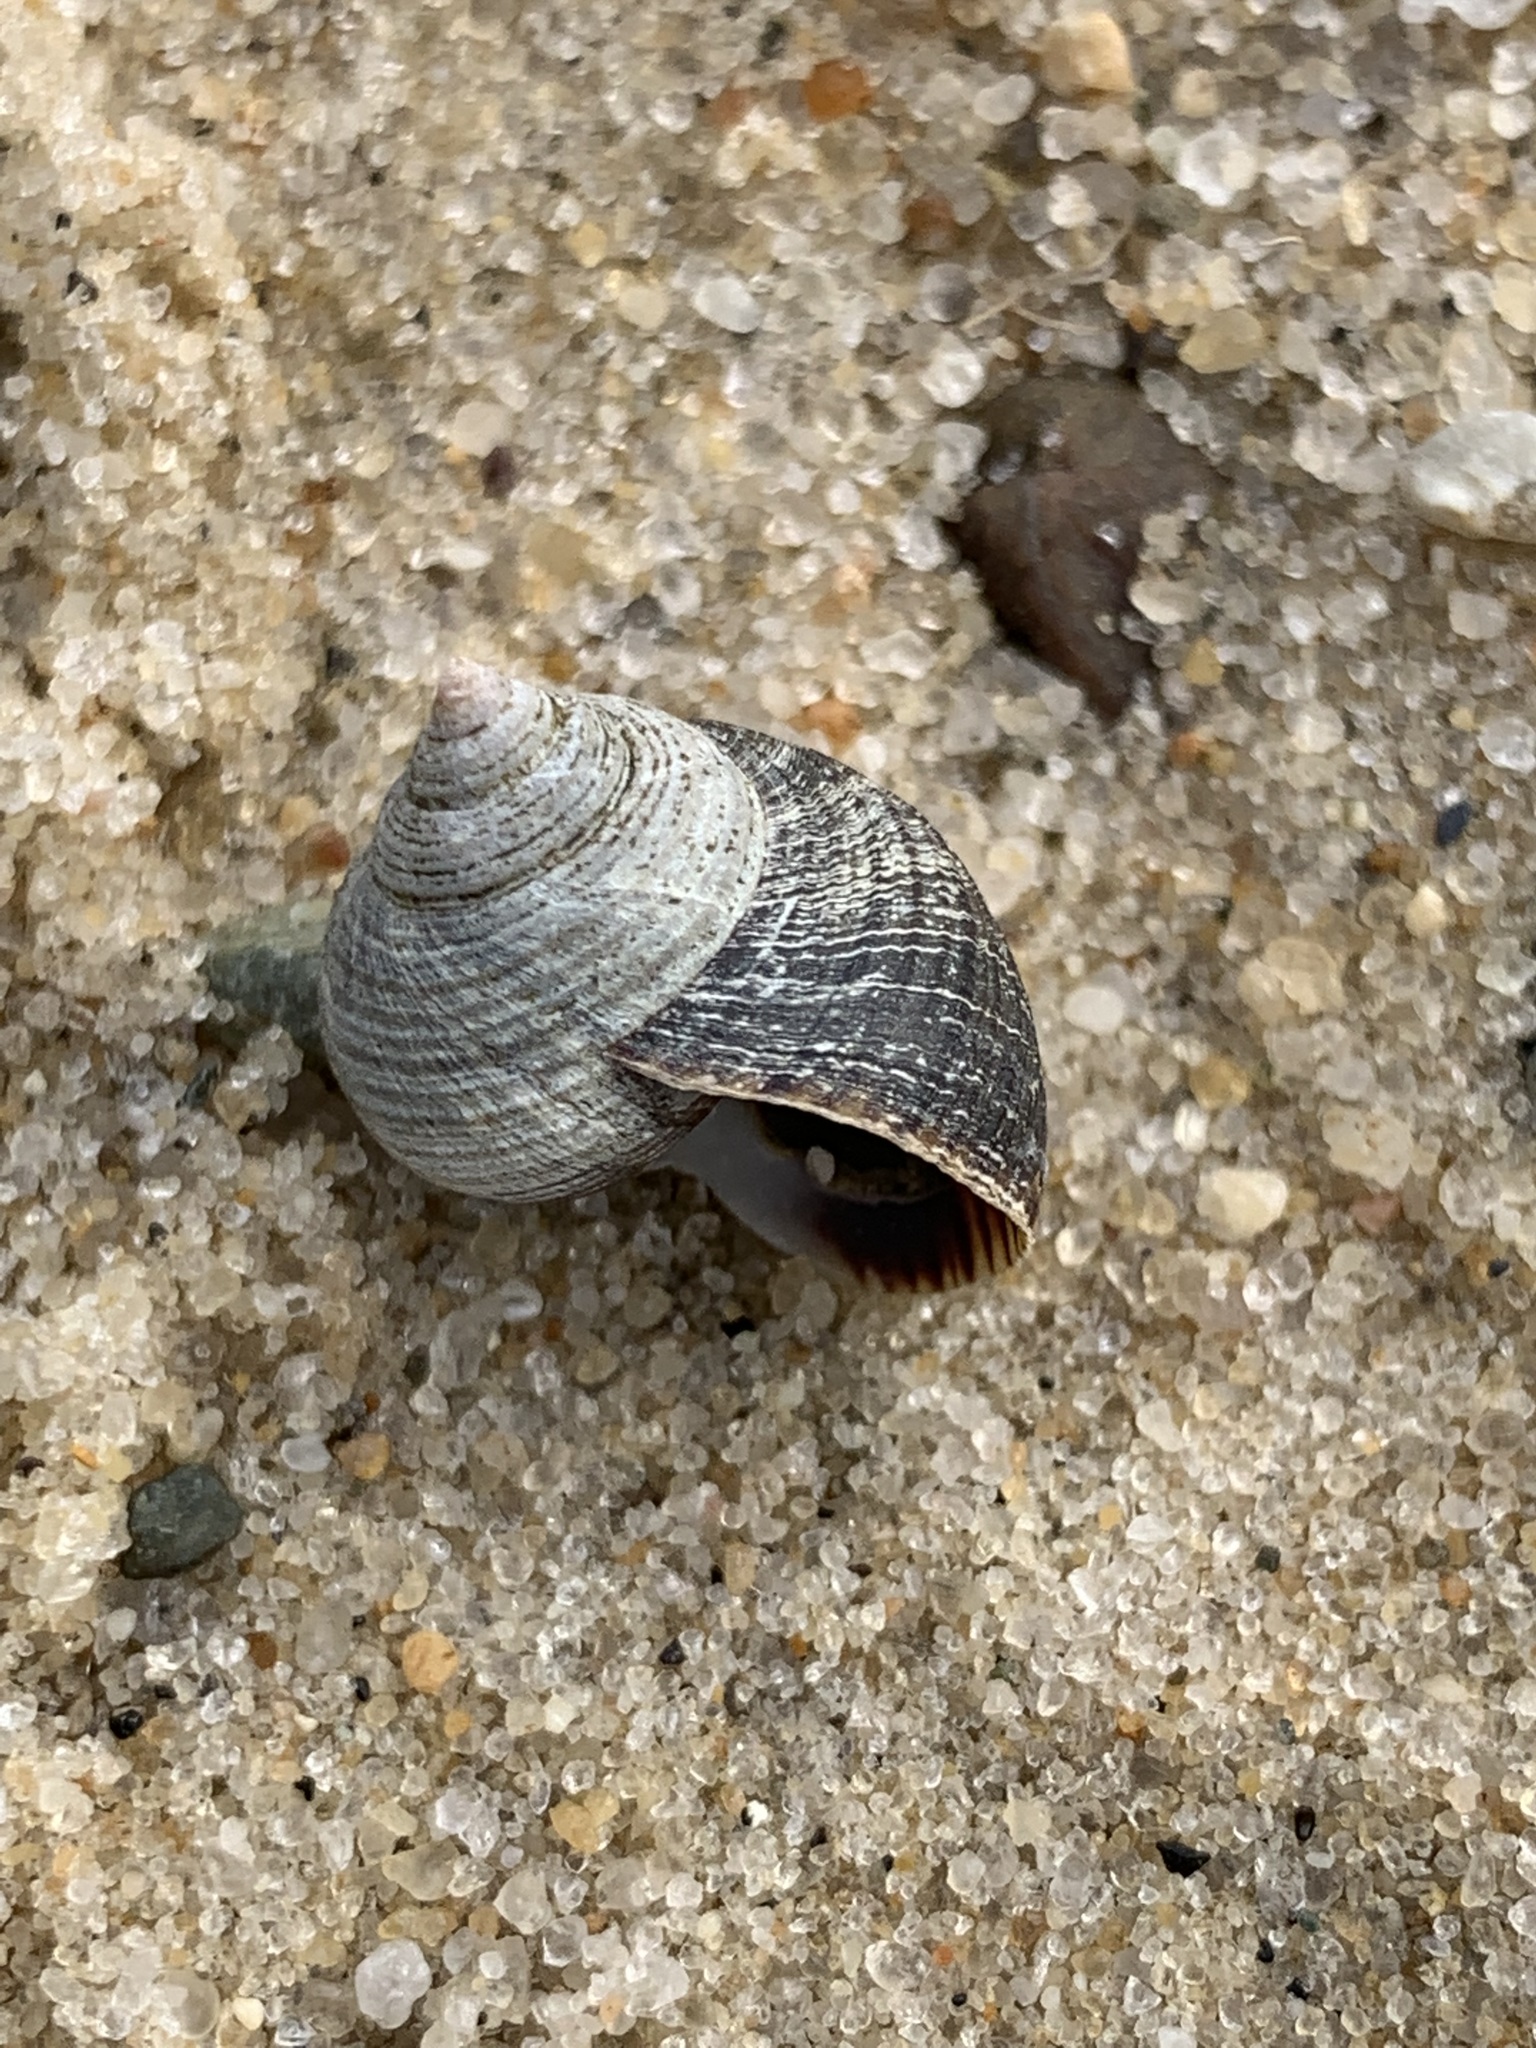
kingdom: Animalia
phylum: Mollusca
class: Gastropoda
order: Littorinimorpha
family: Littorinidae
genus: Littorina
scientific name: Littorina littorea
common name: Common periwinkle
